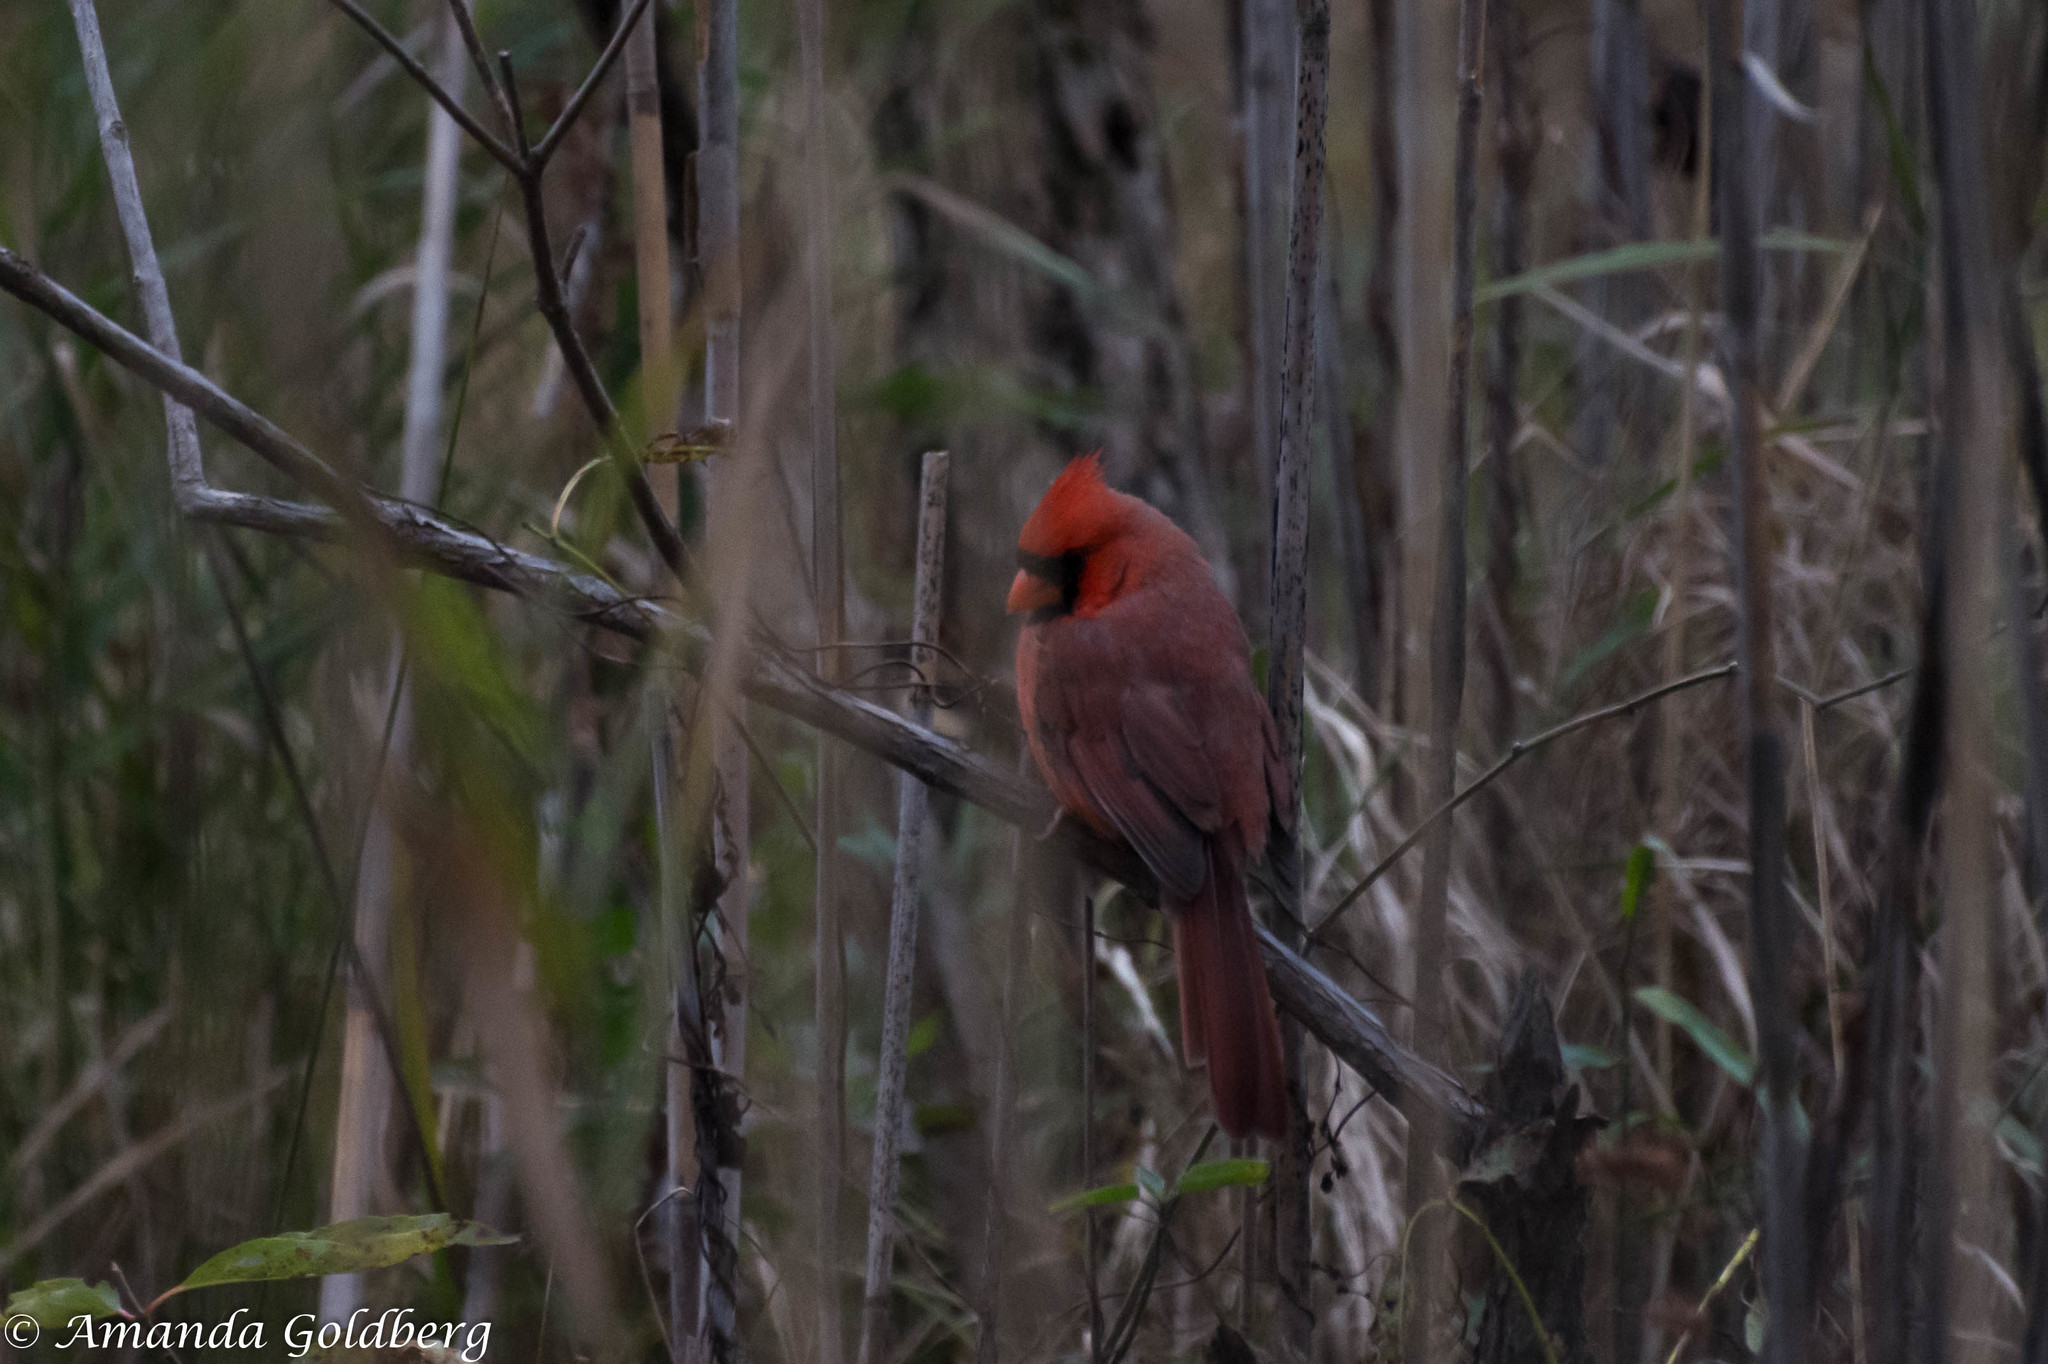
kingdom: Animalia
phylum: Chordata
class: Aves
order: Passeriformes
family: Cardinalidae
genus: Cardinalis
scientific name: Cardinalis cardinalis
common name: Northern cardinal
